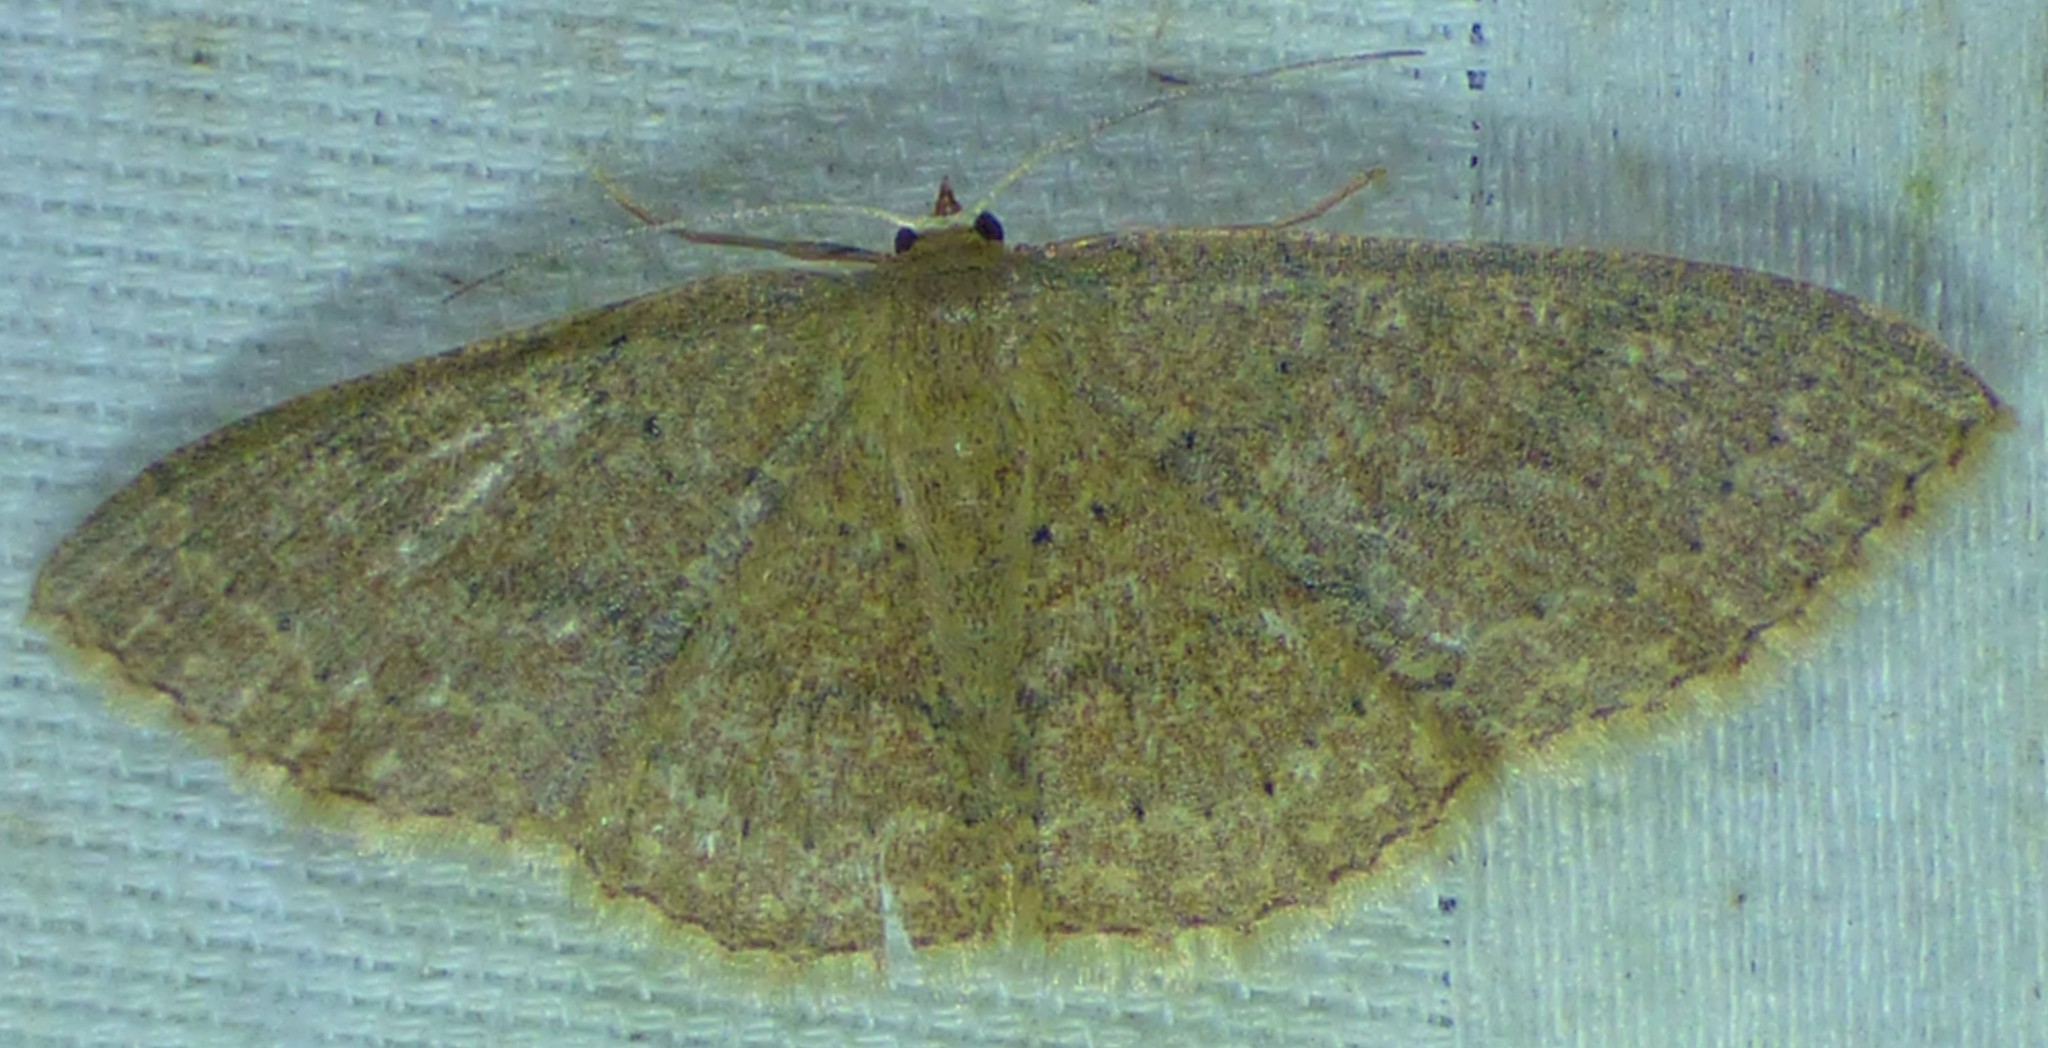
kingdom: Animalia
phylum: Arthropoda
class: Insecta
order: Lepidoptera
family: Geometridae
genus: Pleuroprucha
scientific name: Pleuroprucha insulsaria
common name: Common tan wave
